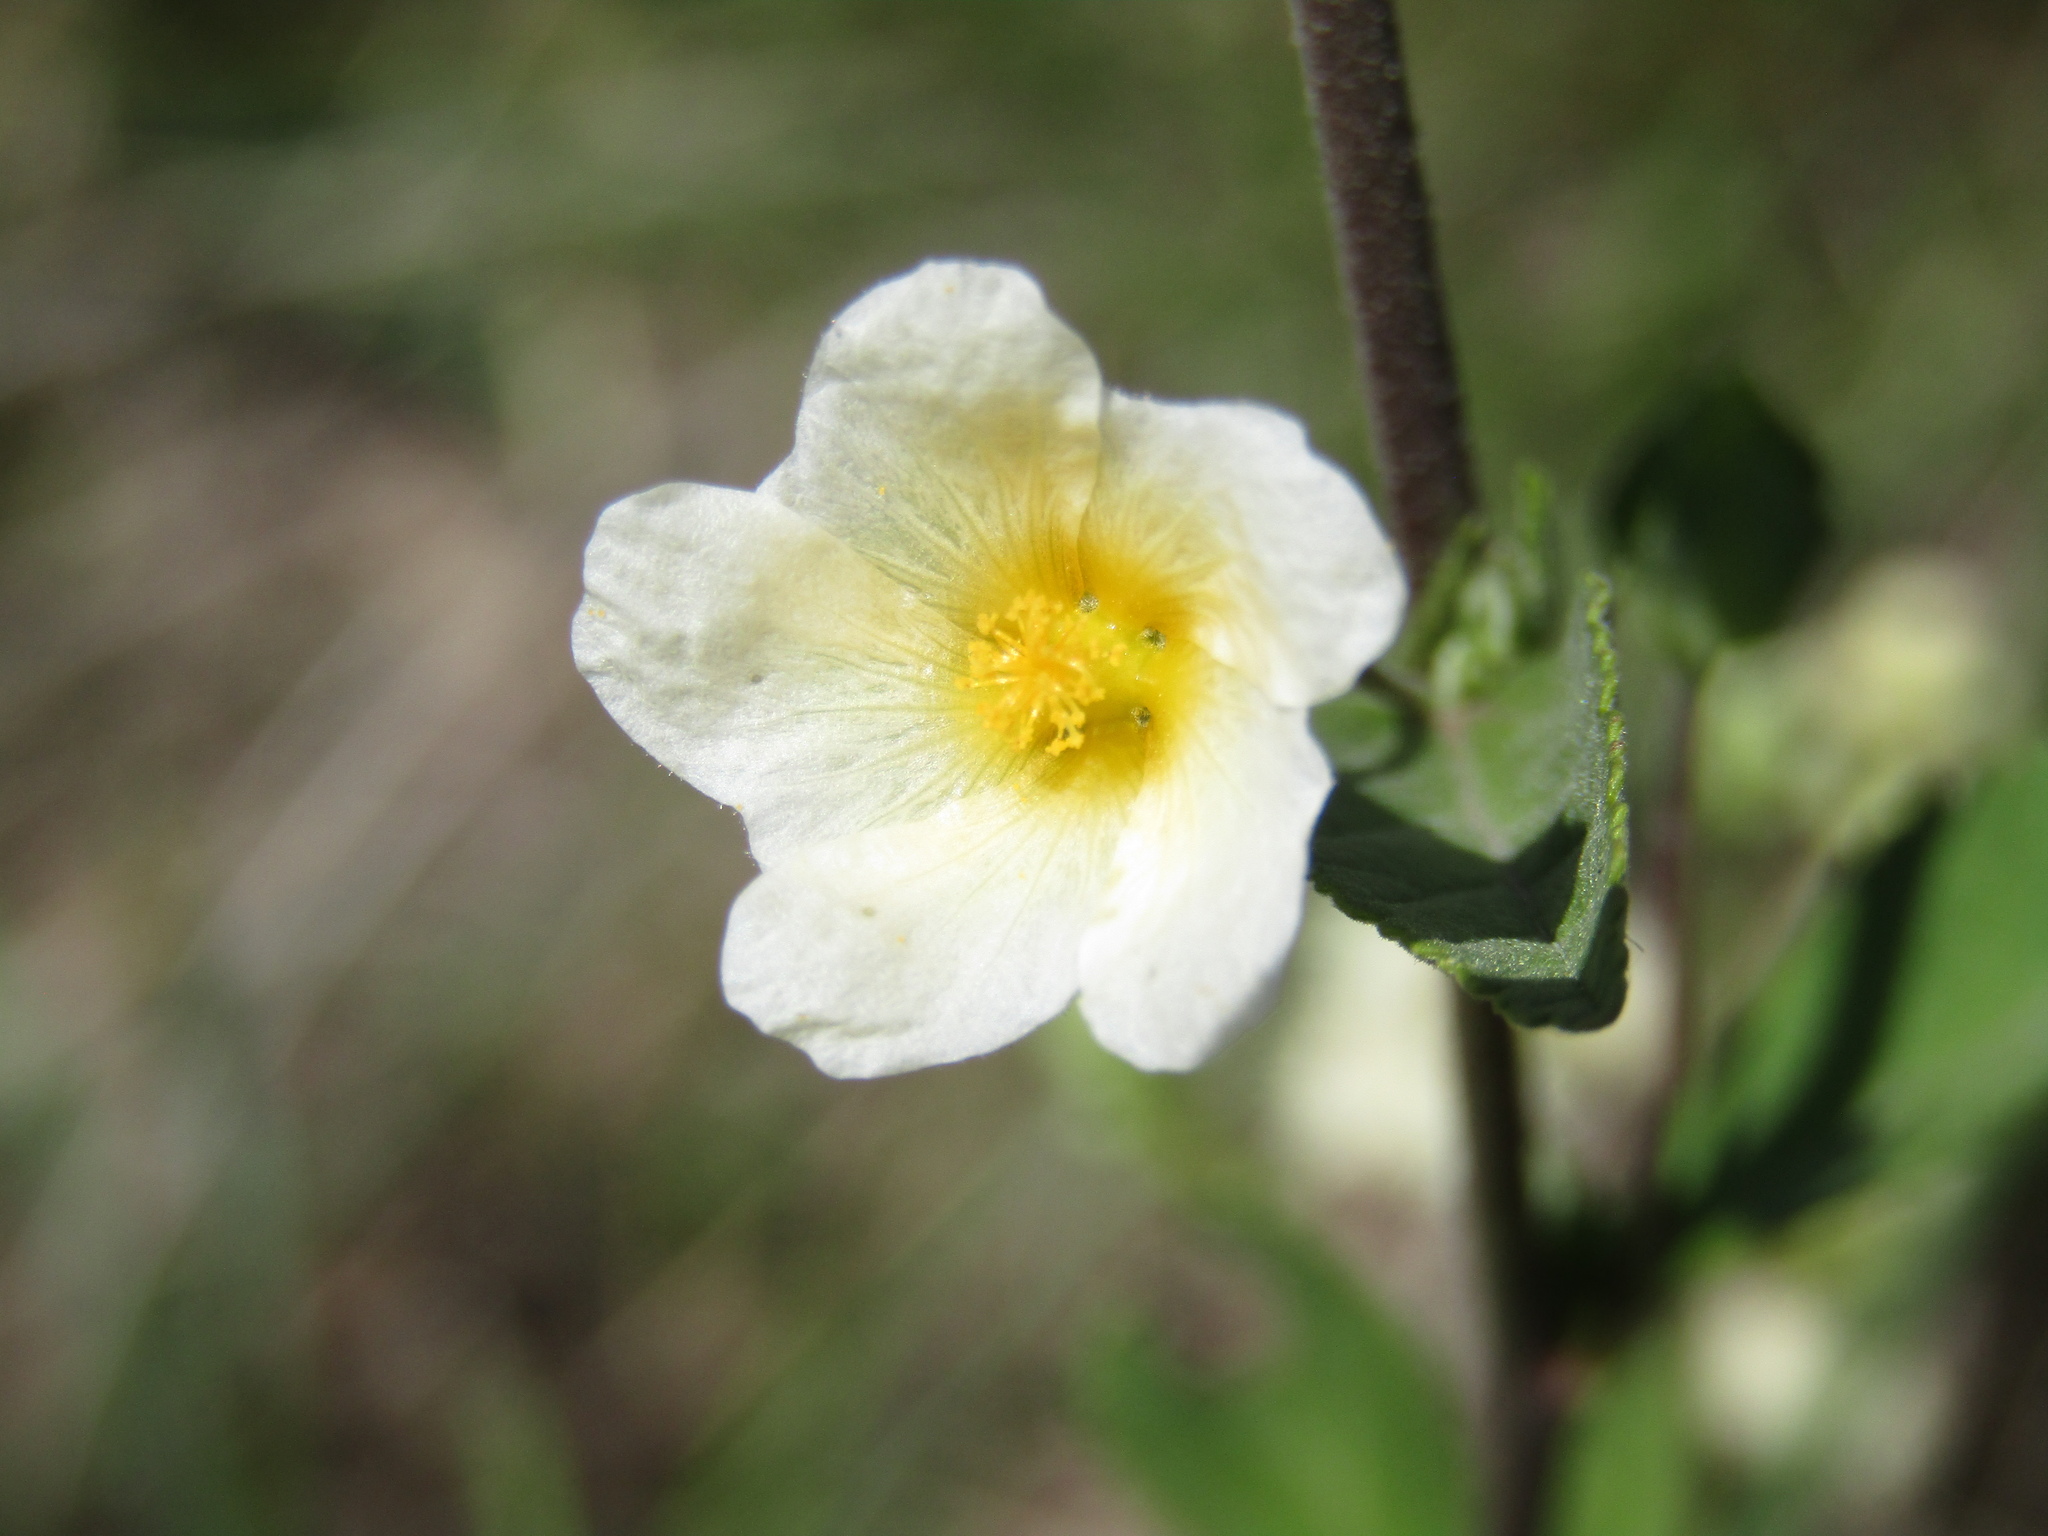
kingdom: Plantae
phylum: Tracheophyta
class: Magnoliopsida
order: Malvales
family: Malvaceae
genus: Sida
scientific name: Sida rhombifolia
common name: Queensland-hemp
